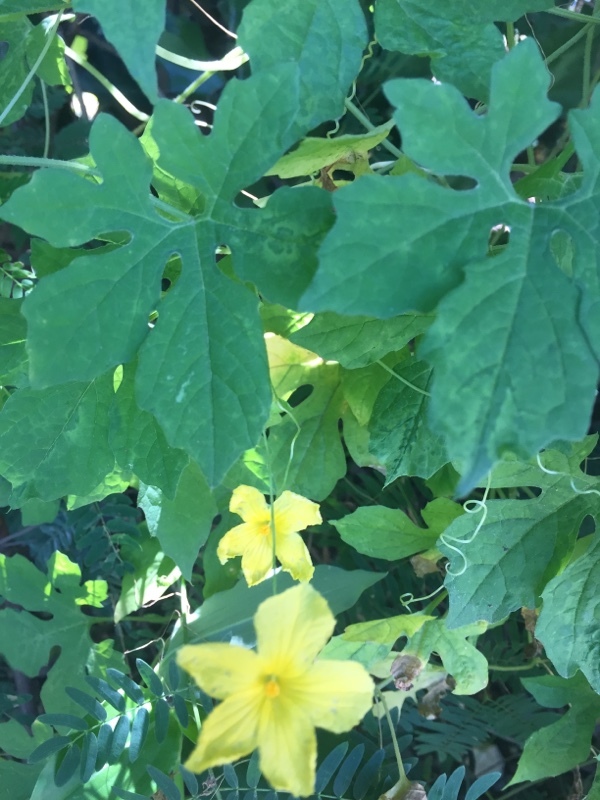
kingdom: Plantae
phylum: Tracheophyta
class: Magnoliopsida
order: Cucurbitales
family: Cucurbitaceae
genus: Momordica
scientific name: Momordica charantia
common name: Balsampear
